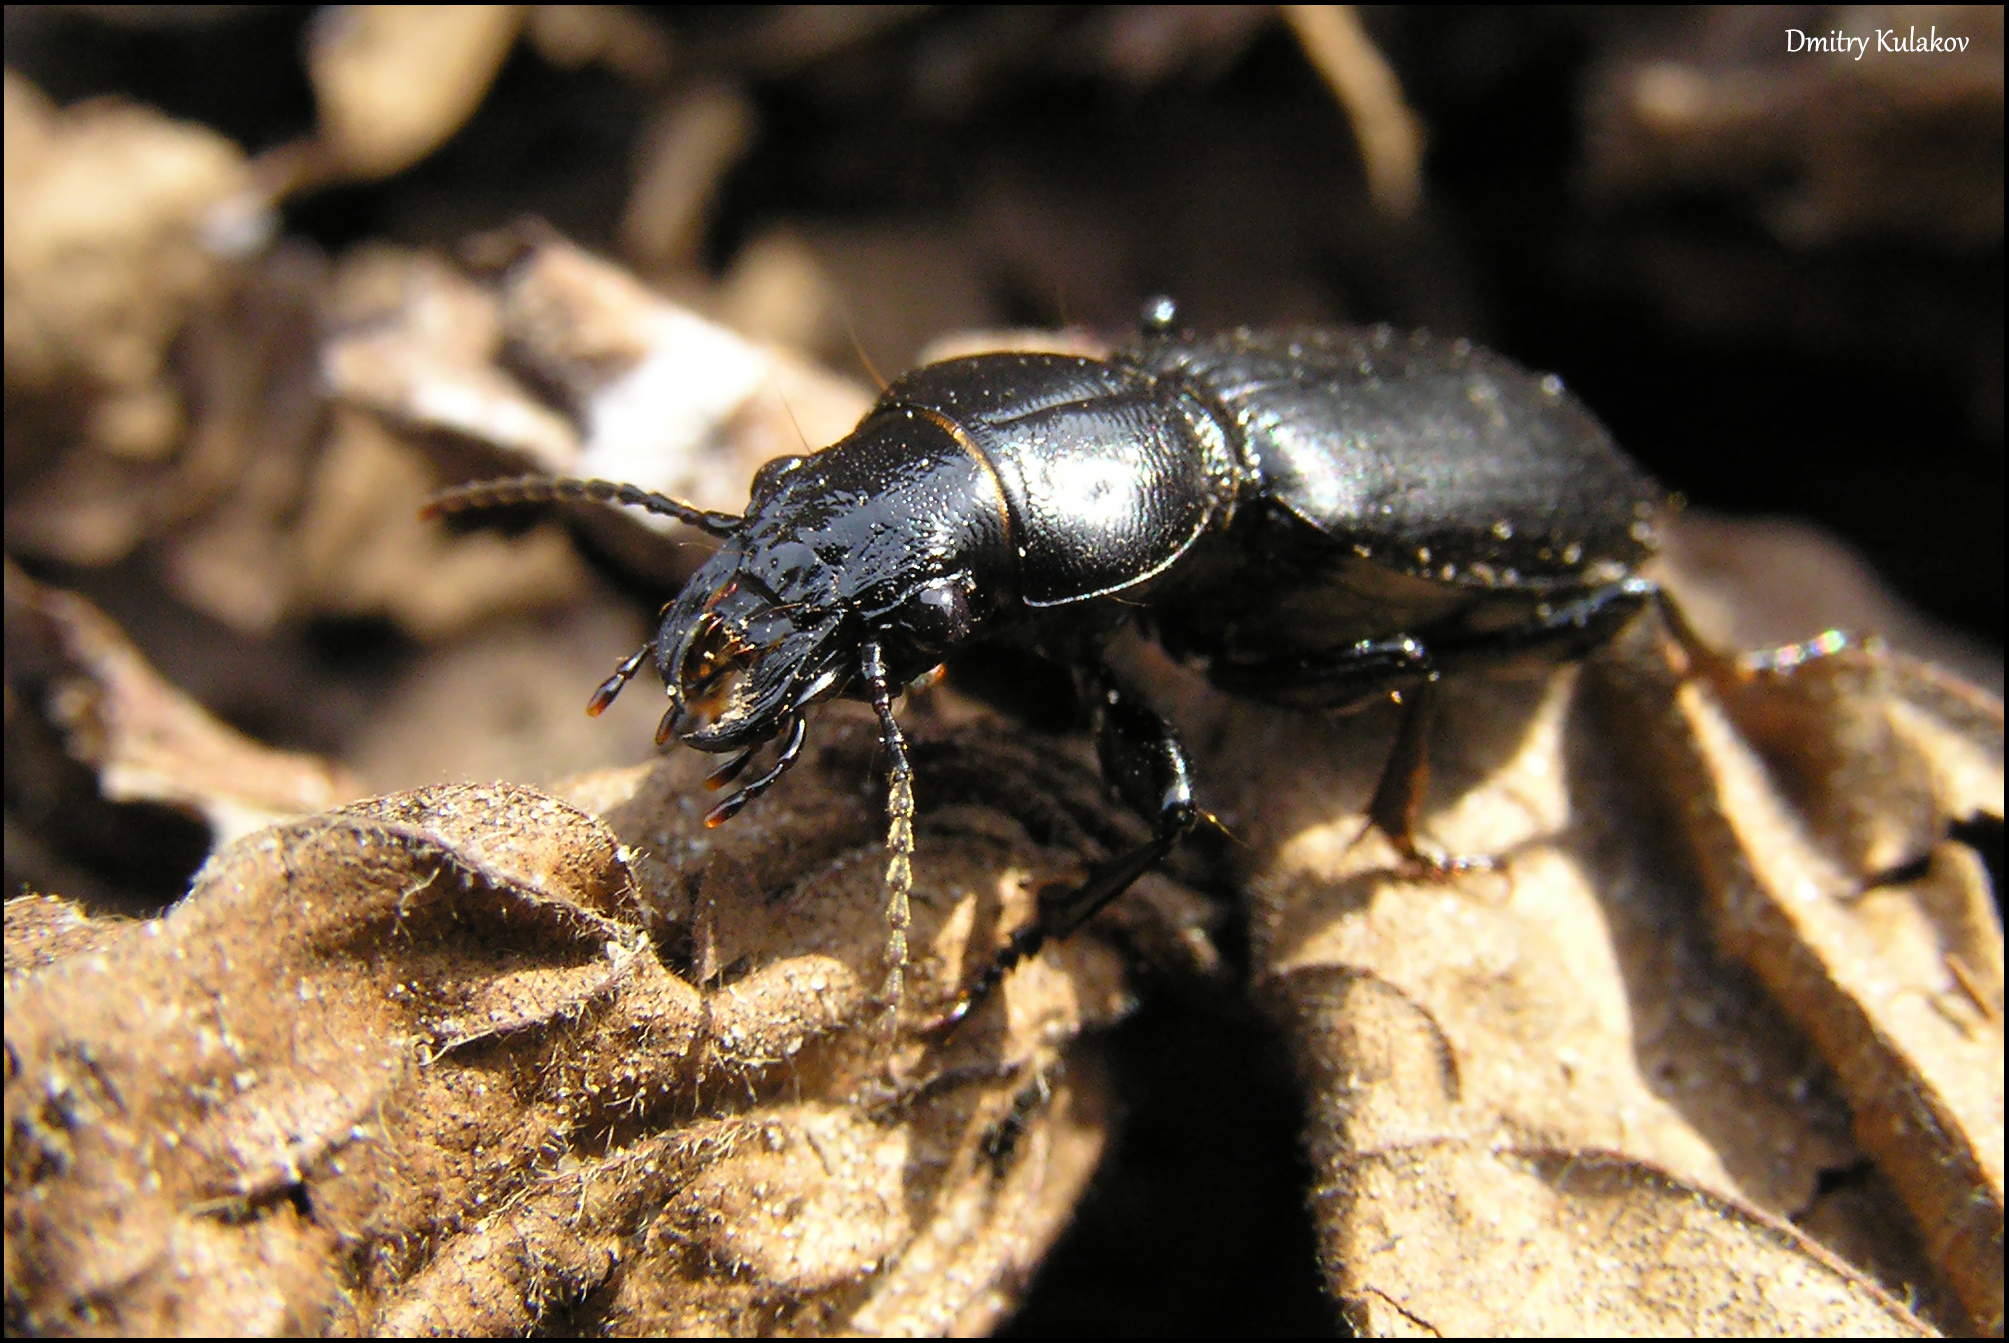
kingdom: Animalia
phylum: Arthropoda
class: Insecta
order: Coleoptera
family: Carabidae
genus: Broscus
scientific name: Broscus cephalotes
